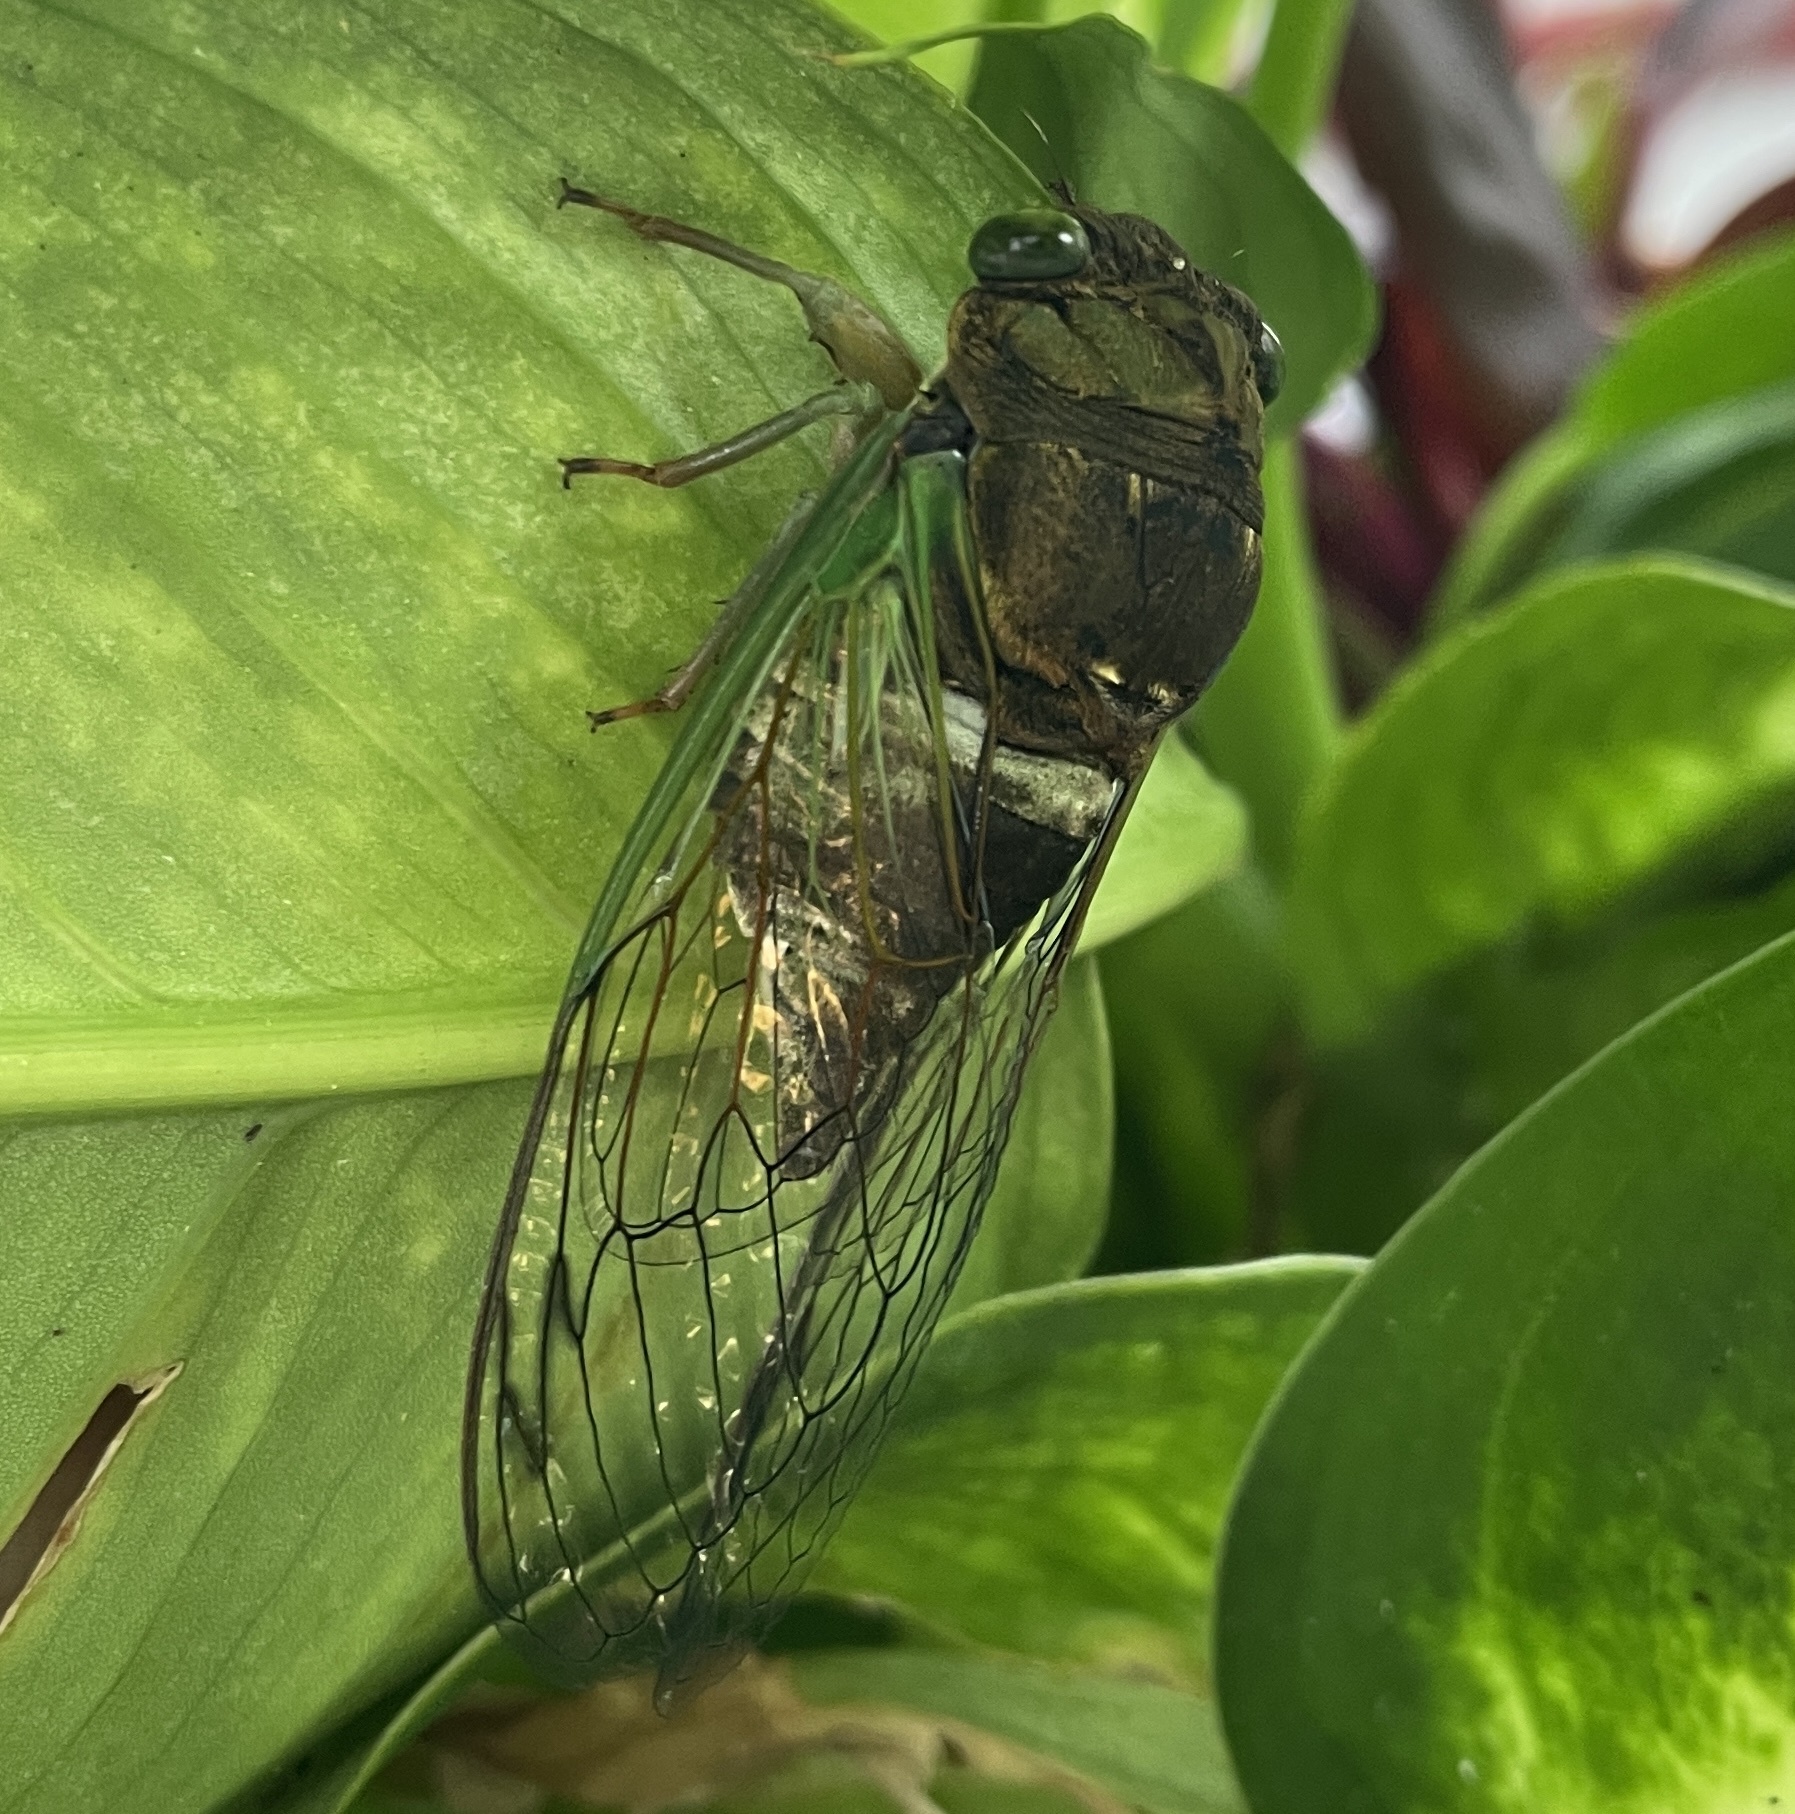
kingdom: Animalia
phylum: Arthropoda
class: Insecta
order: Hemiptera
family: Cicadidae
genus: Neotibicen
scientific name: Neotibicen tibicen
